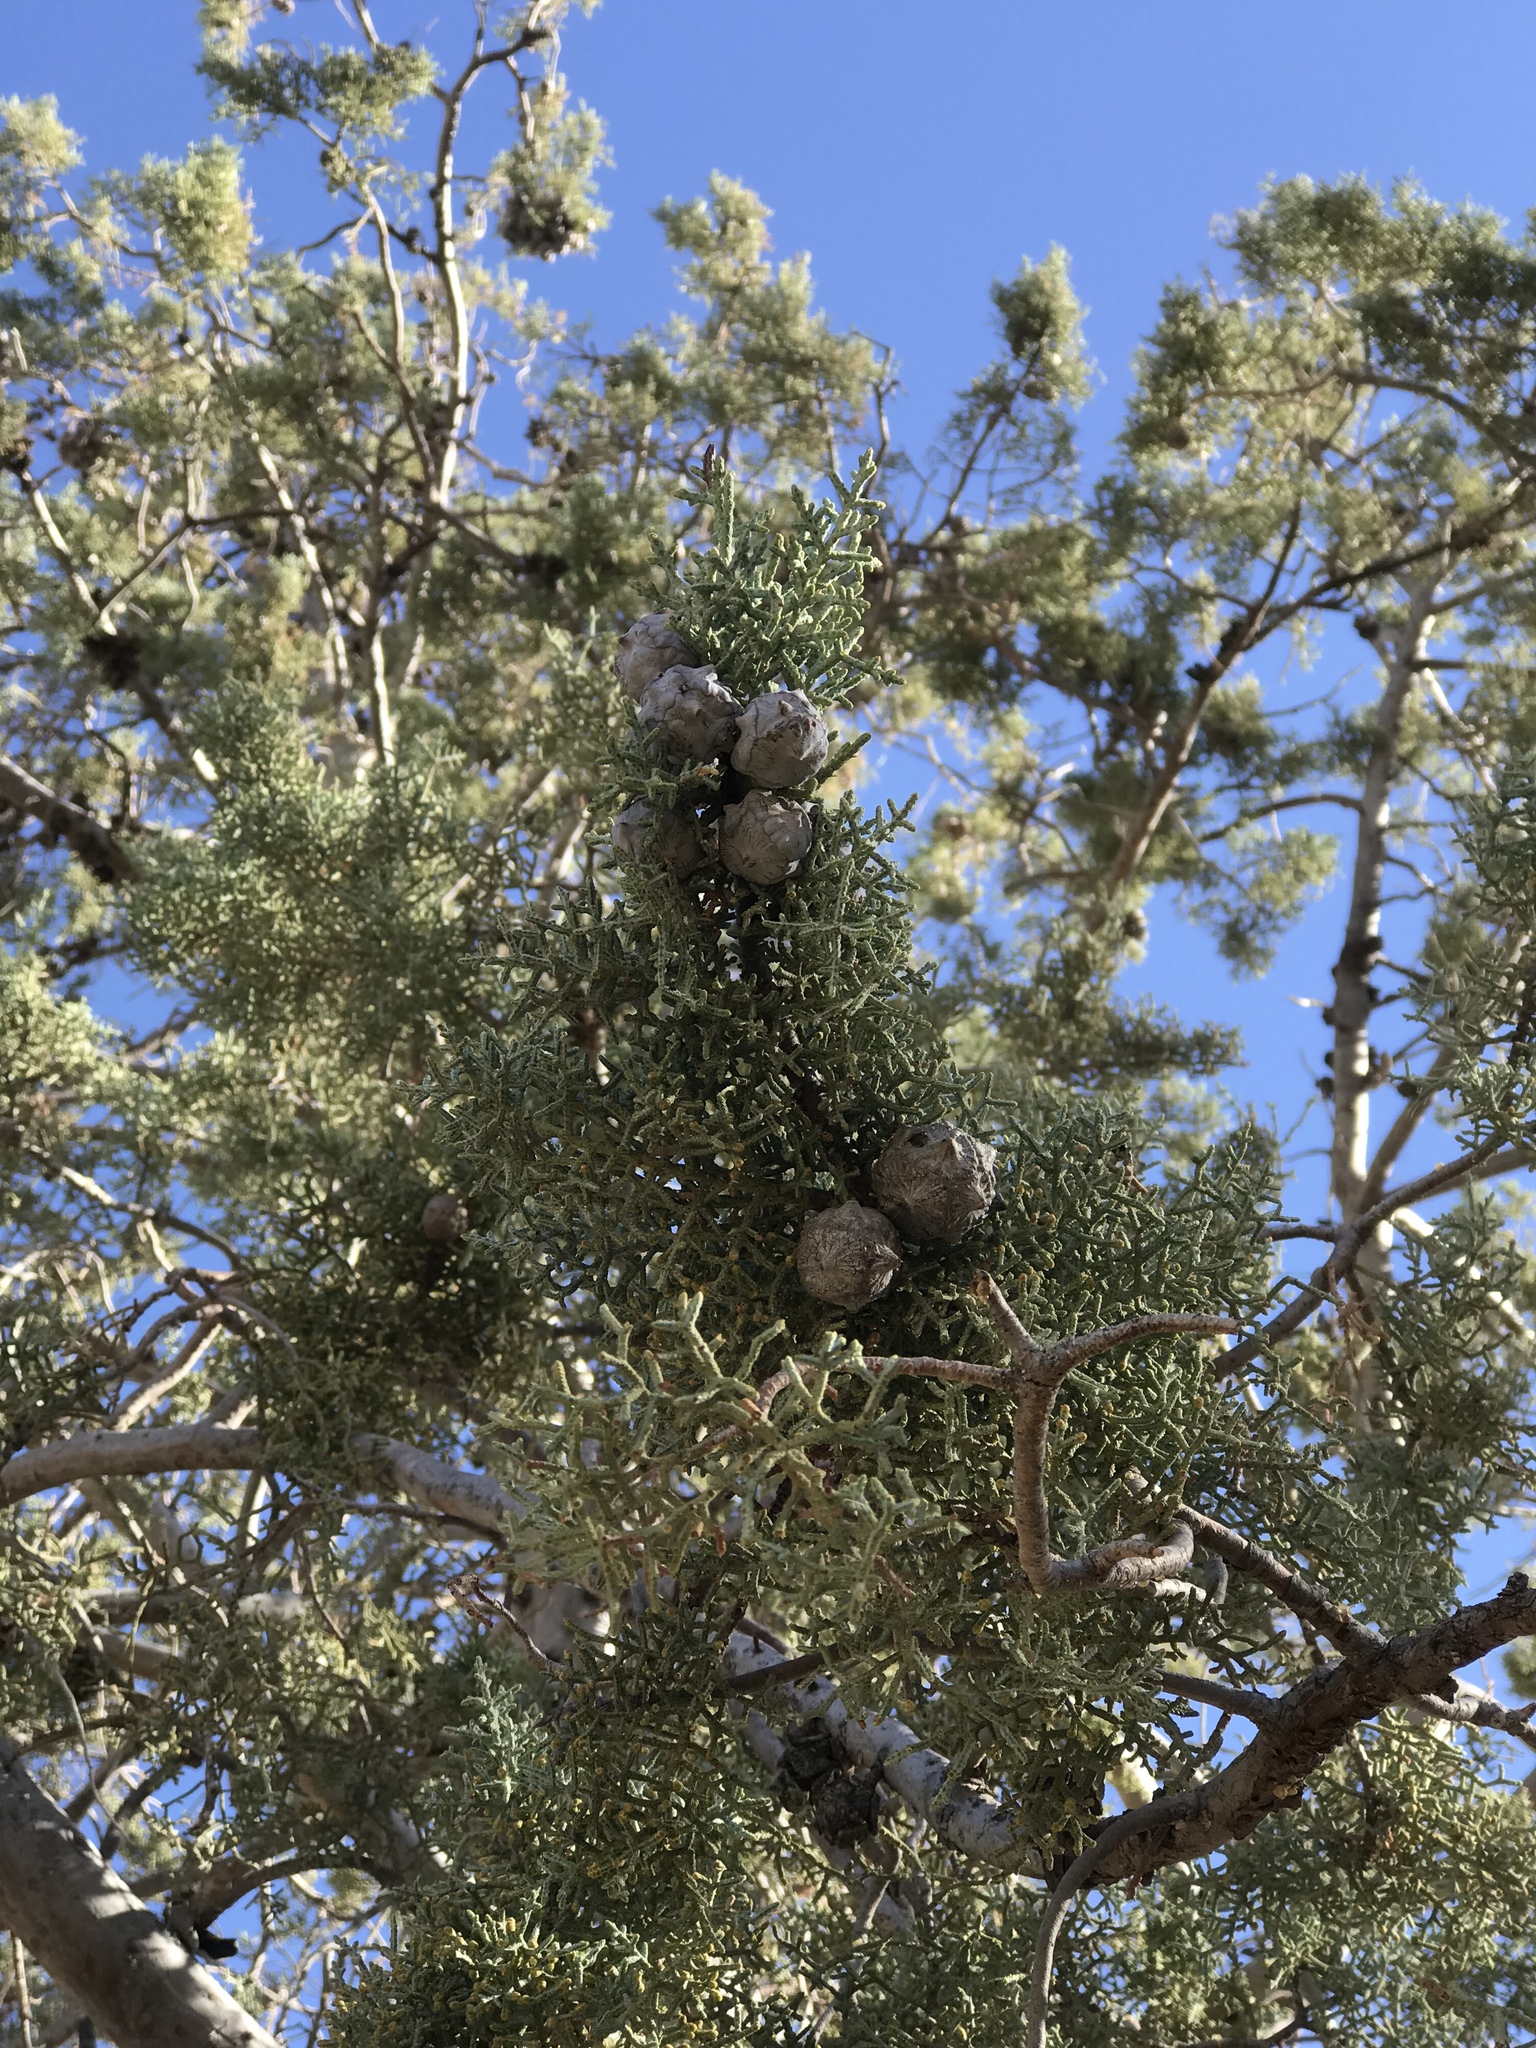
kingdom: Plantae
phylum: Tracheophyta
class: Pinopsida
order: Pinales
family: Cupressaceae
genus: Cupressus
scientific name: Cupressus arizonica
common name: Arizona cypress
